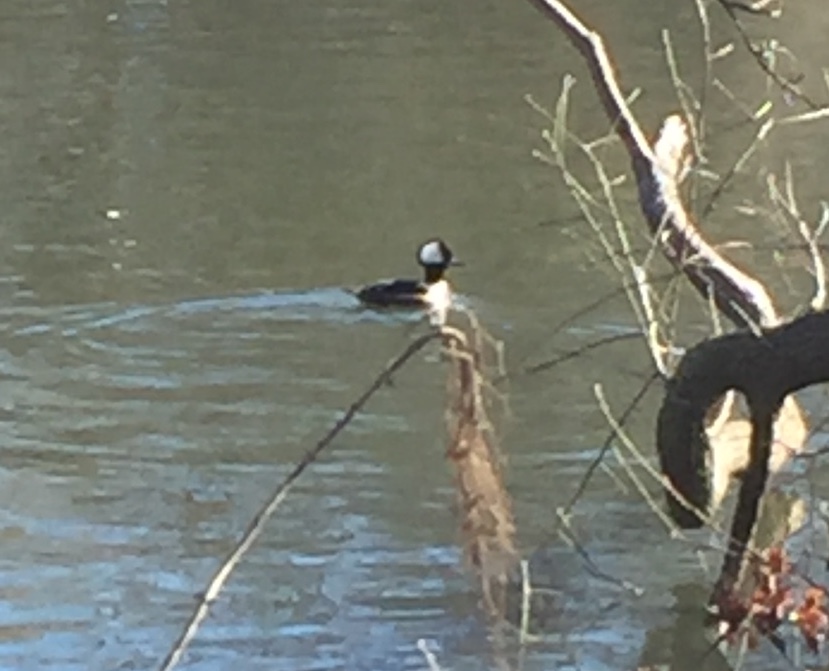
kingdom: Animalia
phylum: Chordata
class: Aves
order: Anseriformes
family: Anatidae
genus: Lophodytes
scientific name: Lophodytes cucullatus
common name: Hooded merganser
